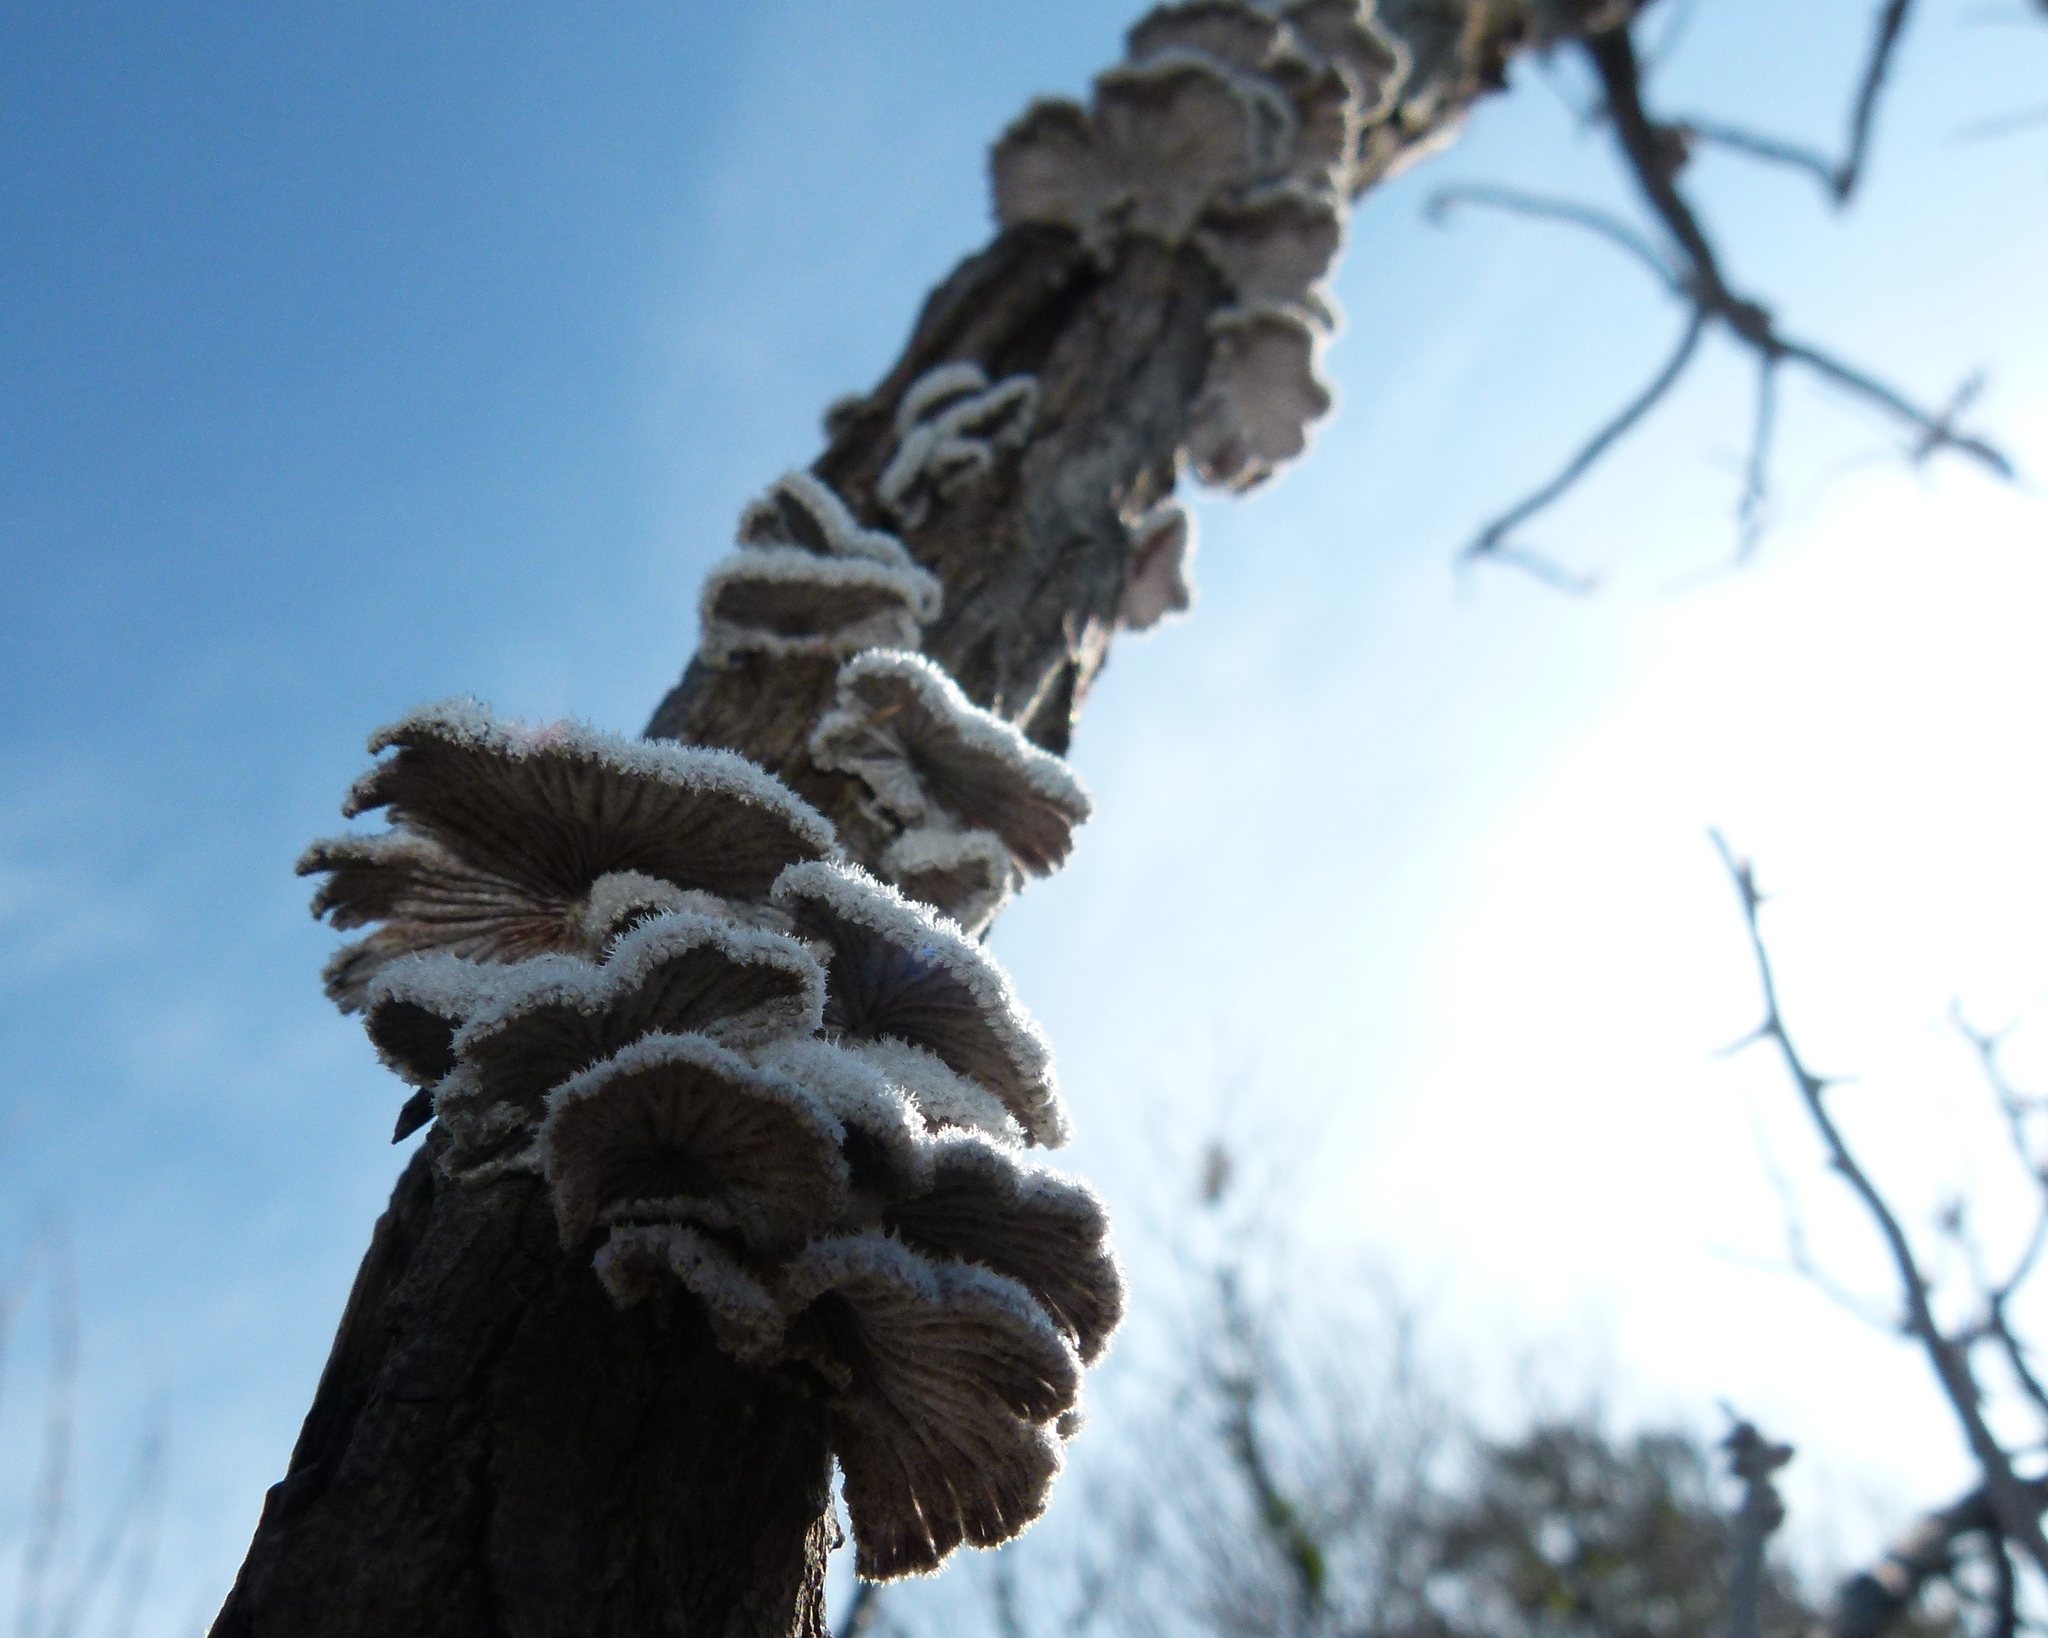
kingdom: Fungi
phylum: Basidiomycota
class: Agaricomycetes
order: Agaricales
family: Schizophyllaceae
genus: Schizophyllum
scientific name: Schizophyllum commune
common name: Common porecrust
